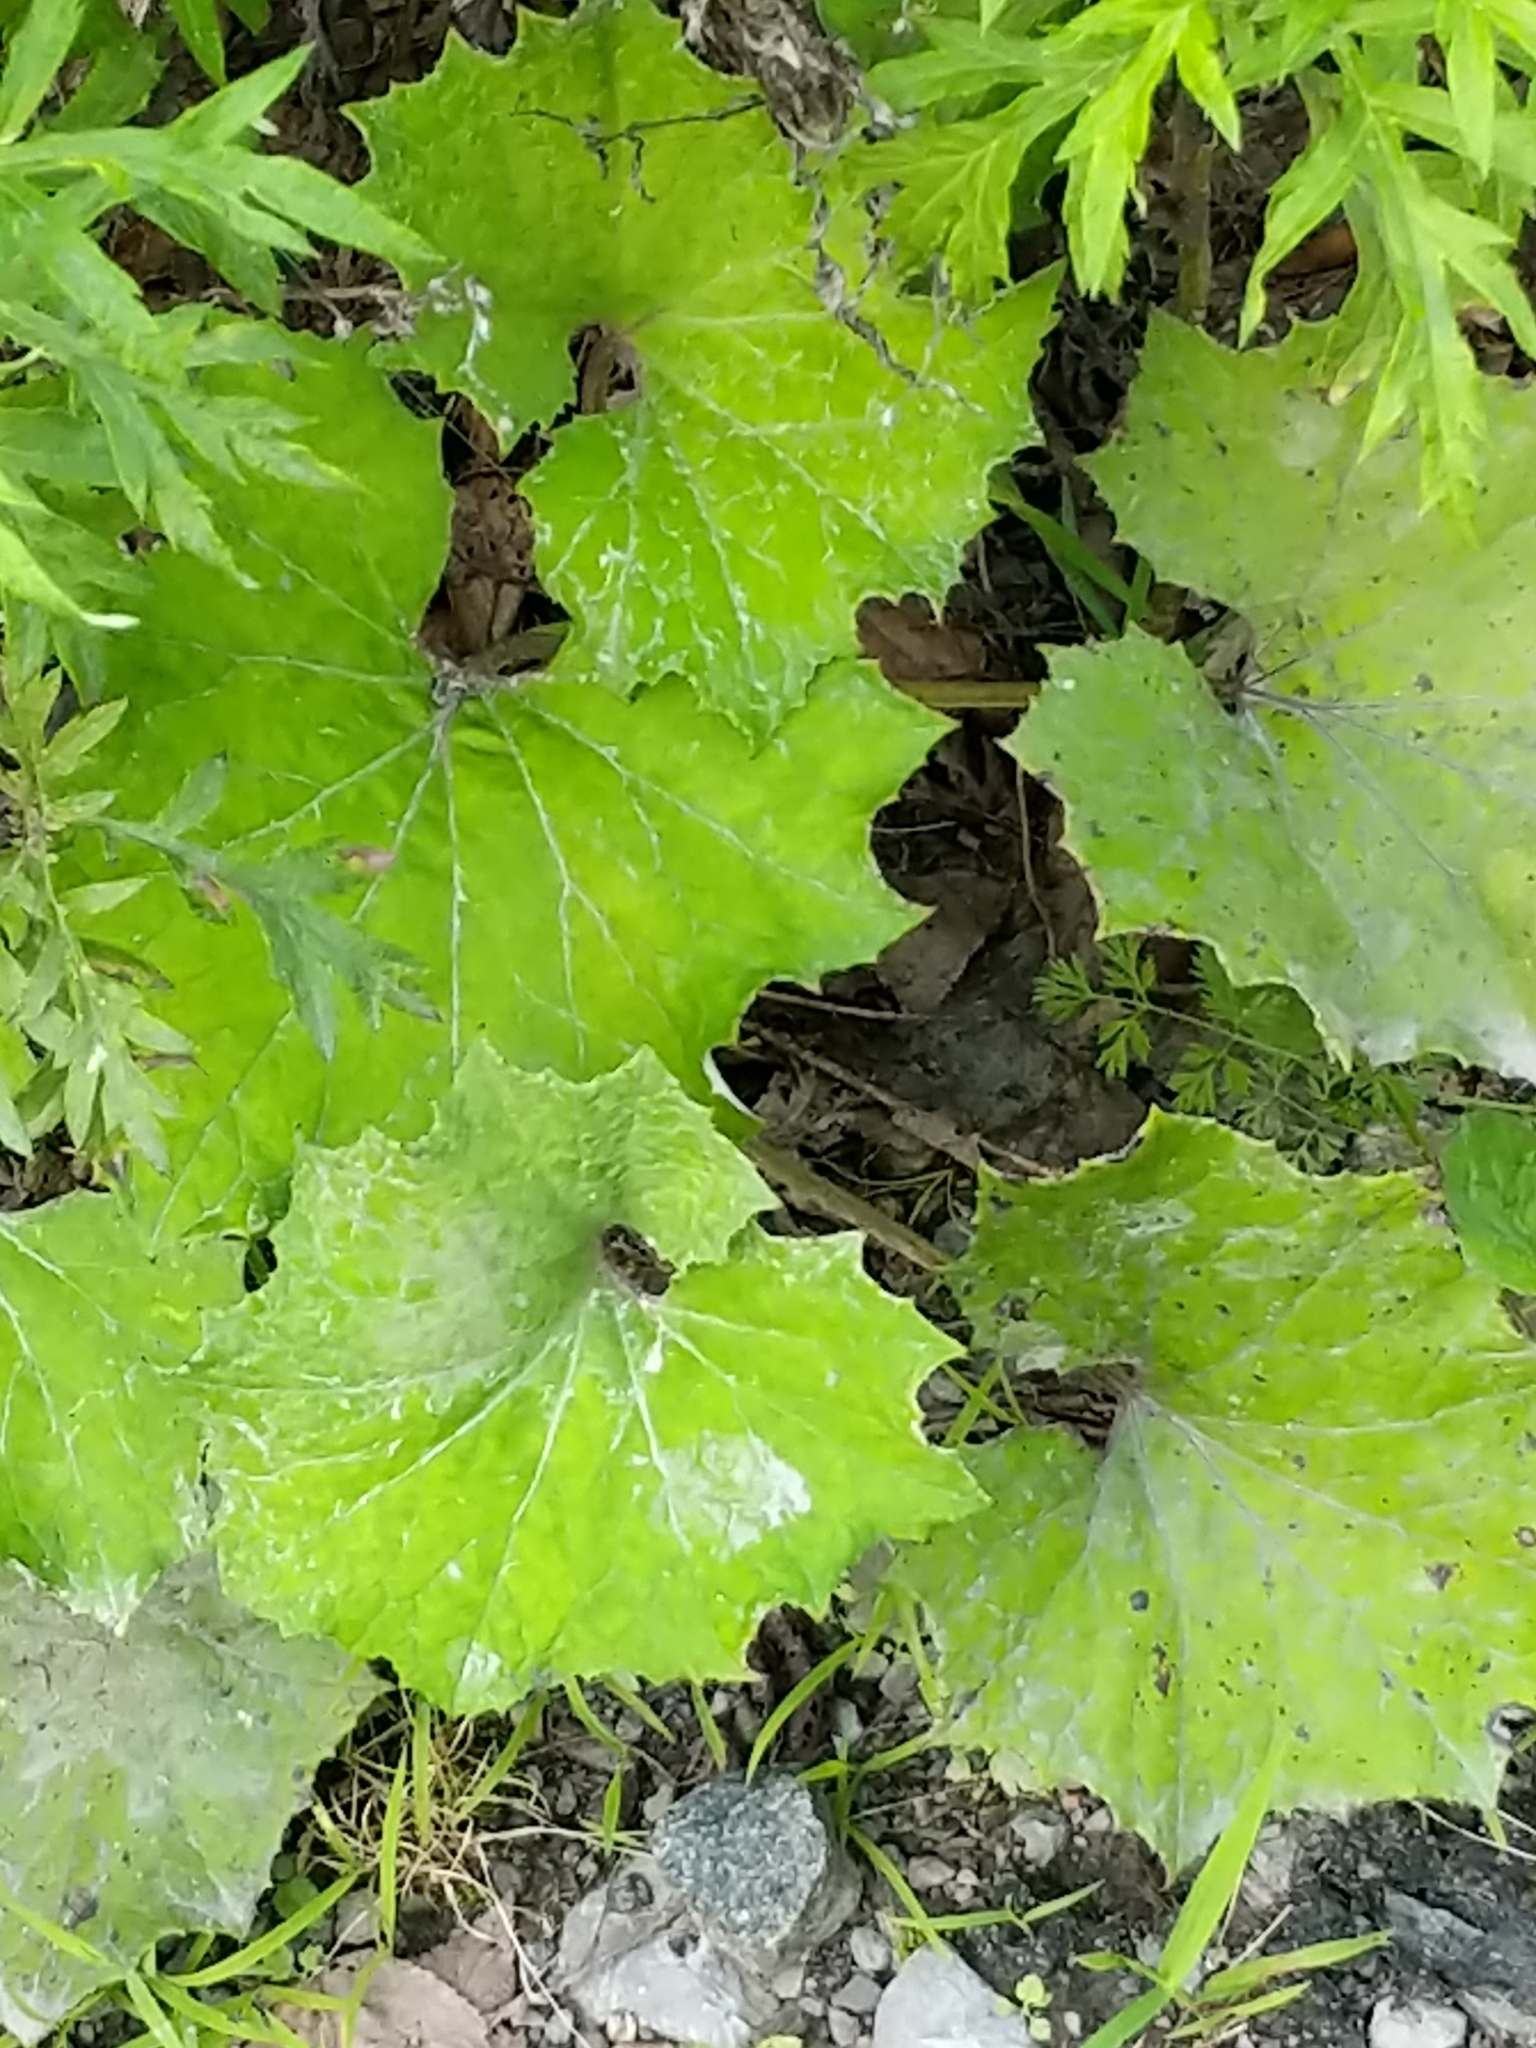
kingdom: Plantae
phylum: Tracheophyta
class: Magnoliopsida
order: Asterales
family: Asteraceae
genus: Tussilago
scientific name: Tussilago farfara
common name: Coltsfoot
